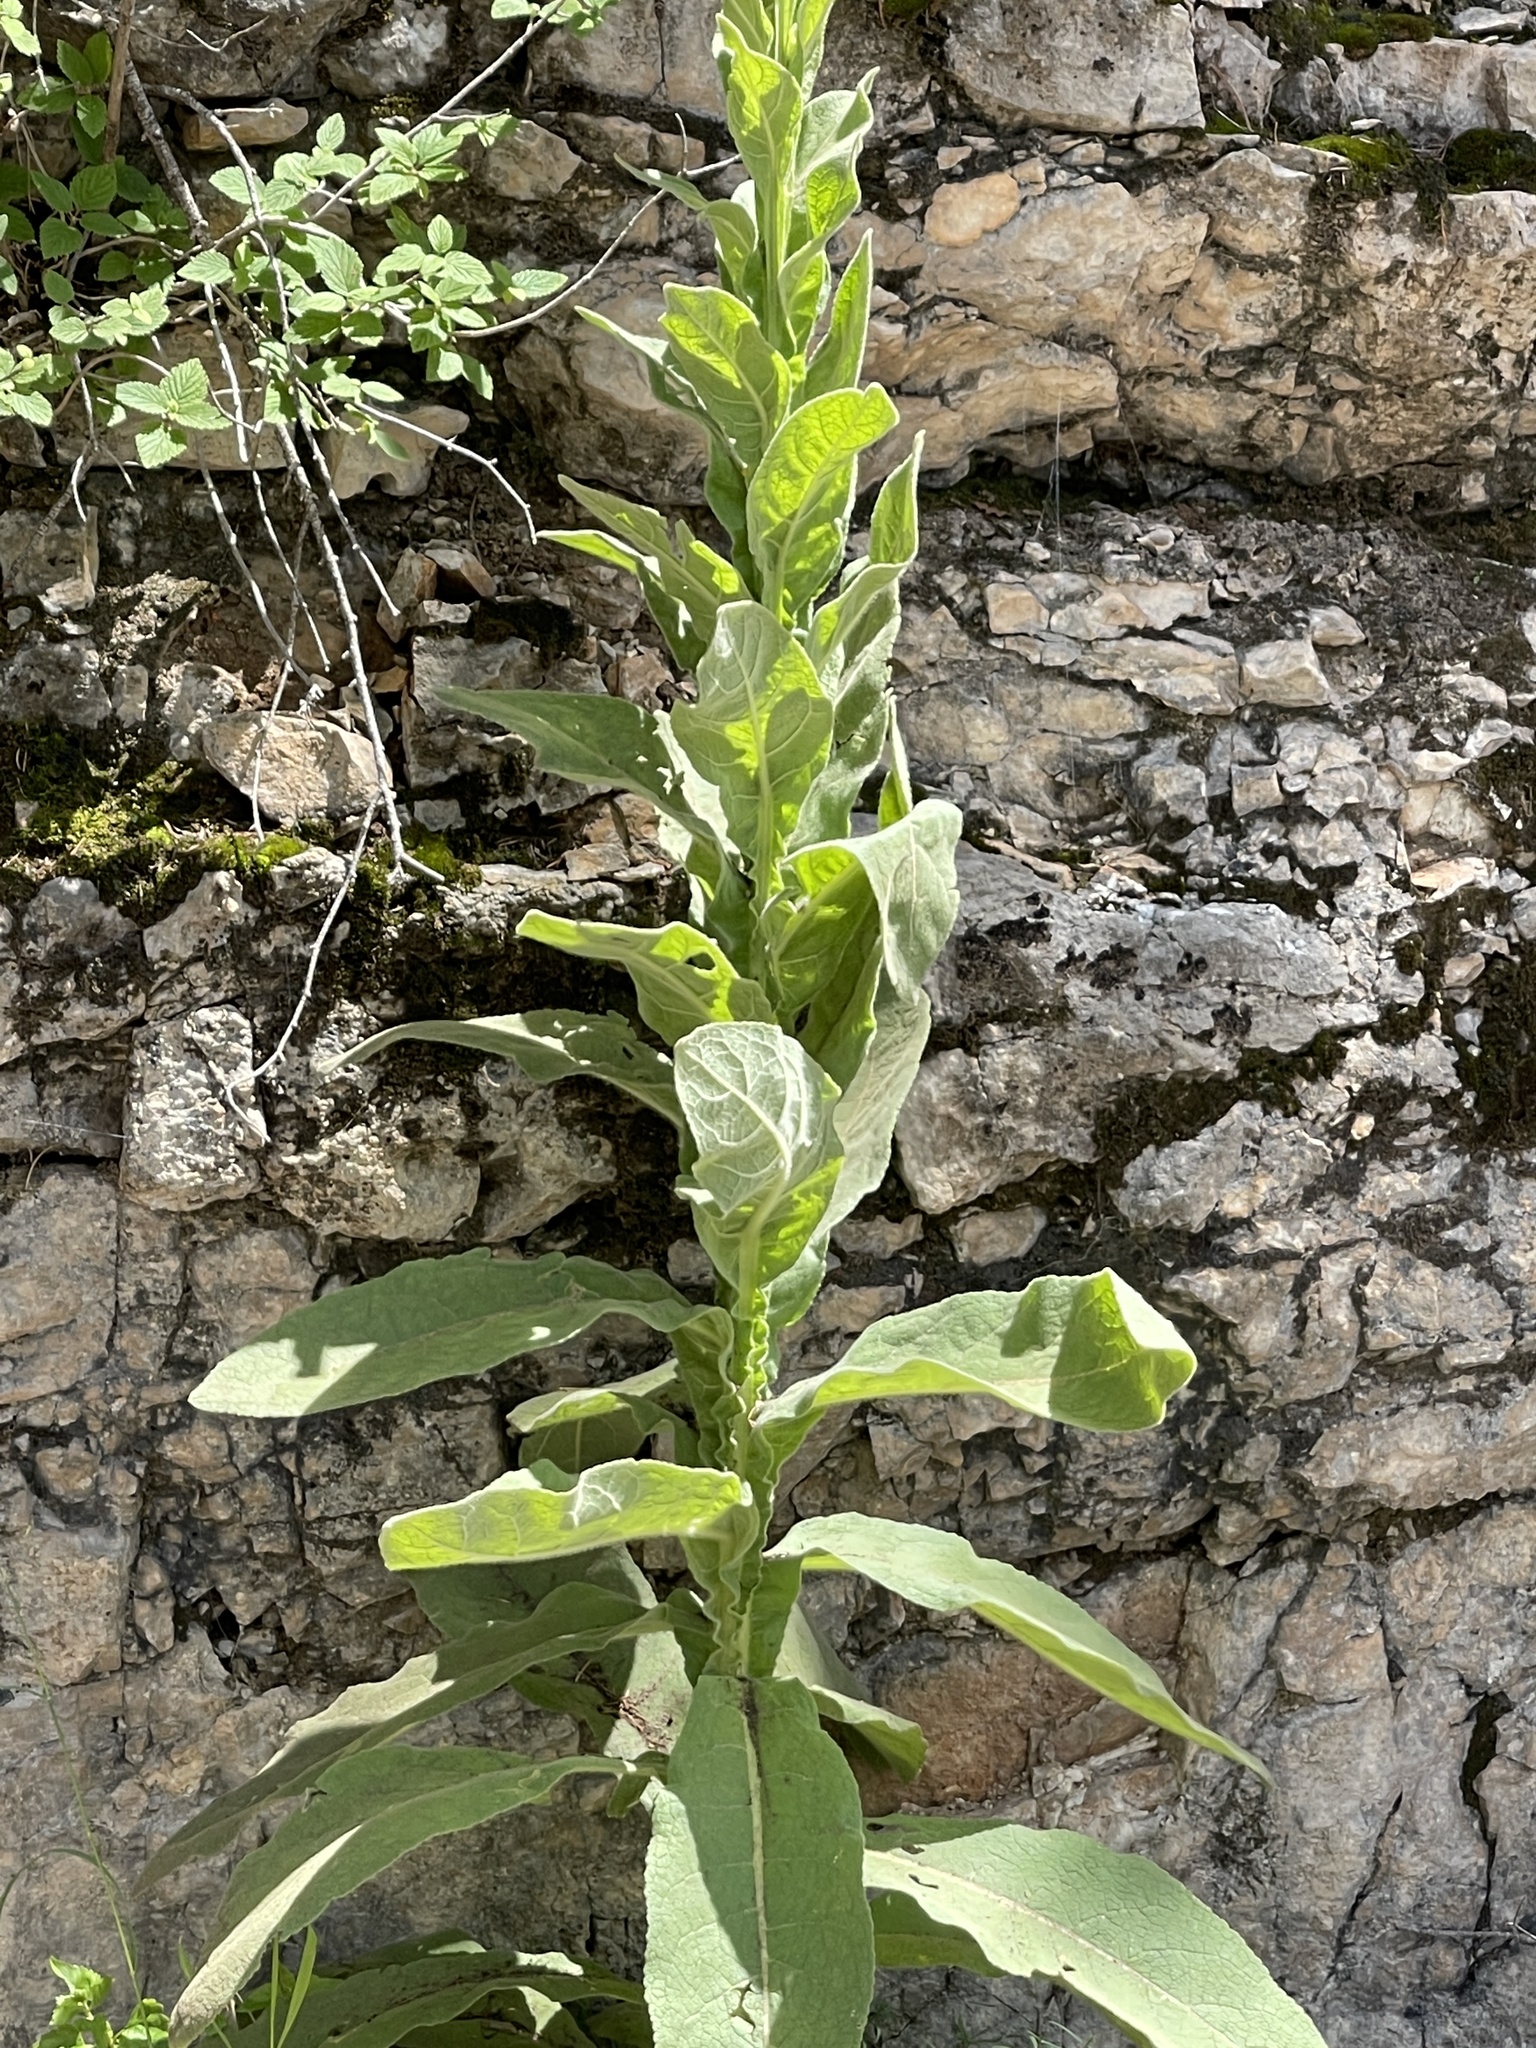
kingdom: Plantae
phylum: Tracheophyta
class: Magnoliopsida
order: Lamiales
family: Scrophulariaceae
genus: Verbascum
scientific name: Verbascum thapsus
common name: Common mullein
